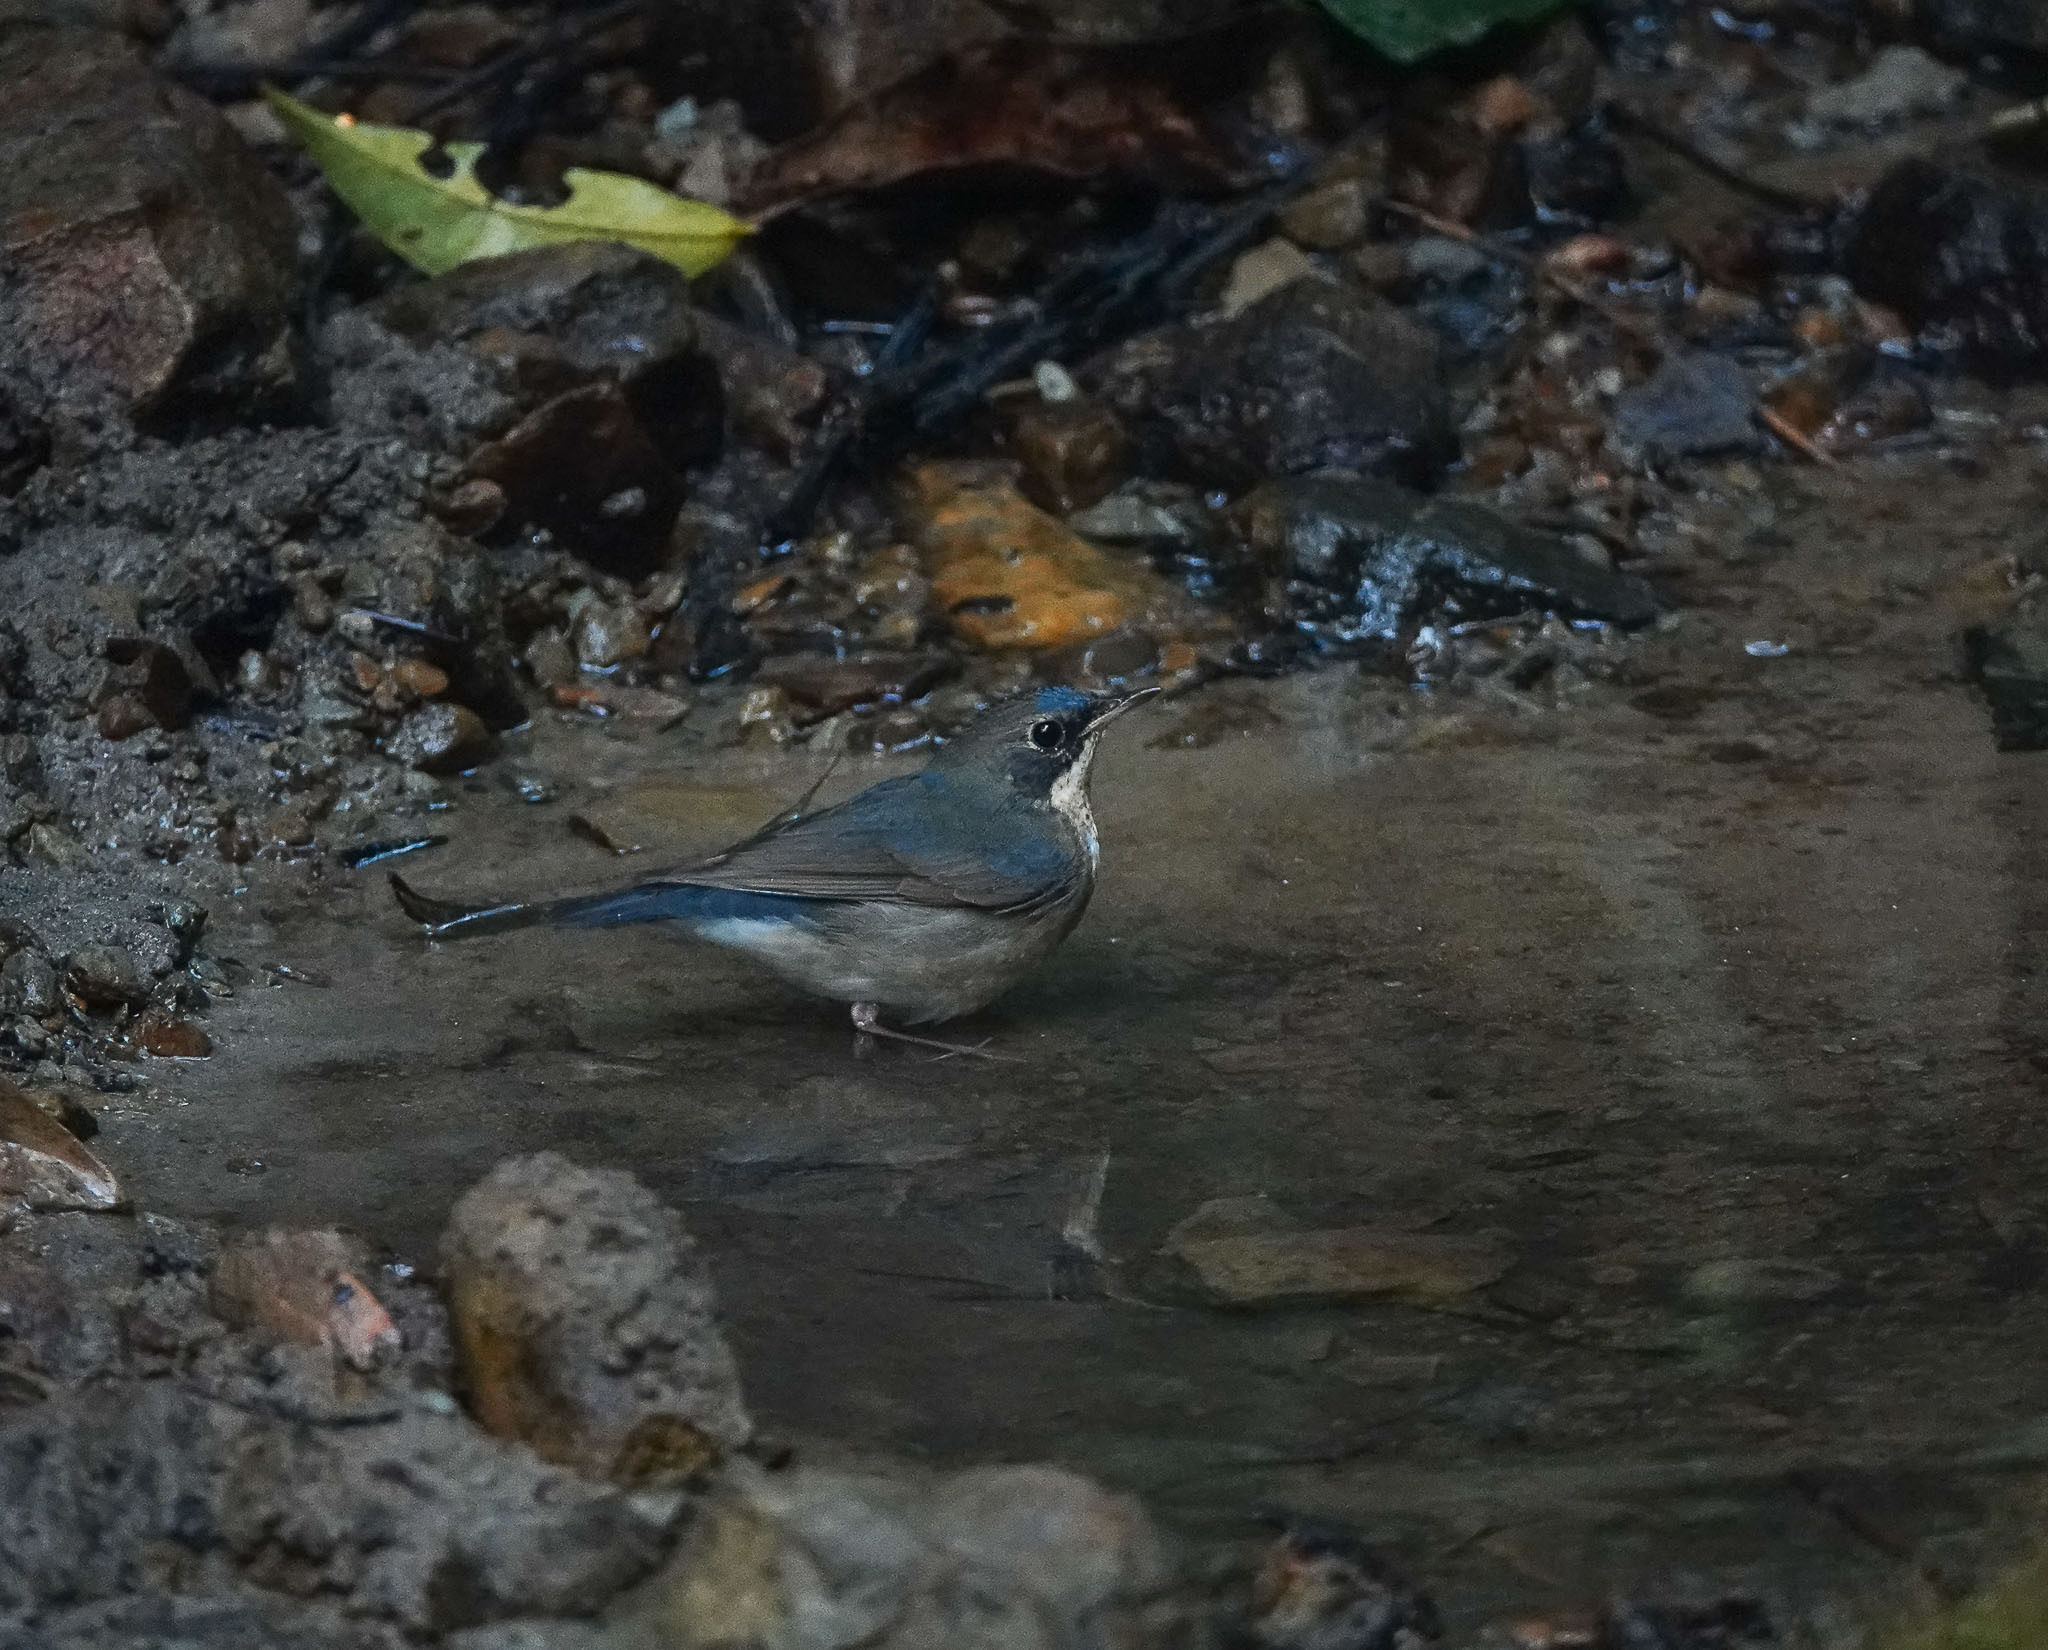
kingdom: Animalia
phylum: Chordata
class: Aves
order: Passeriformes
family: Muscicapidae
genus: Luscinia
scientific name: Luscinia cyane
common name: Siberian blue robin
